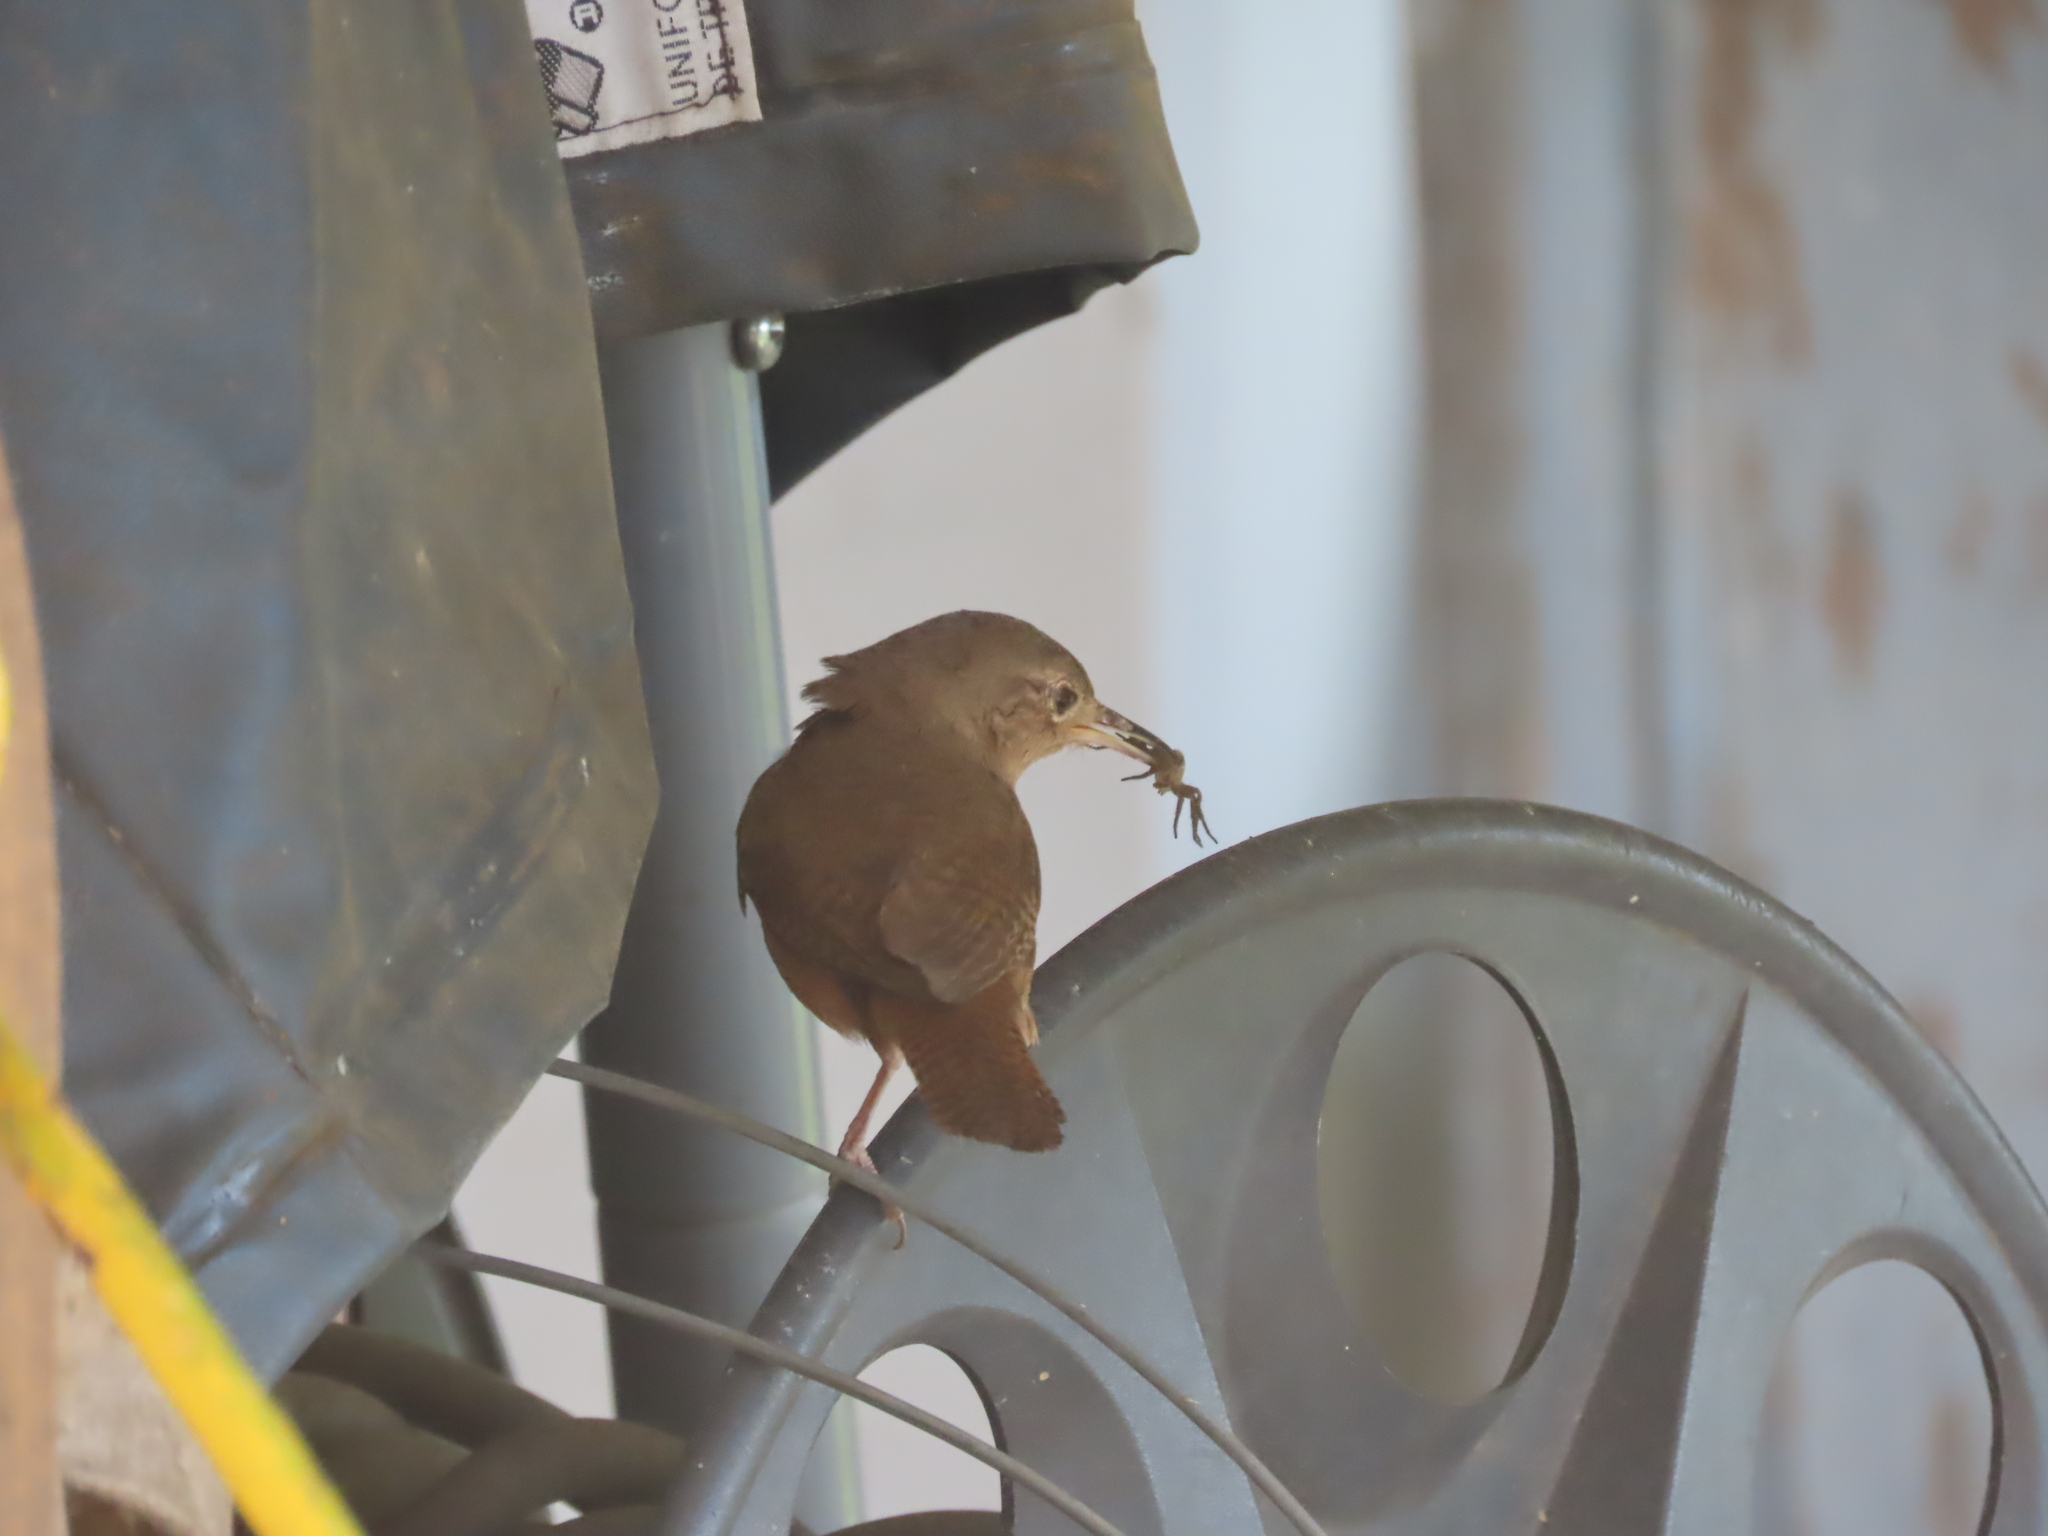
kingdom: Animalia
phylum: Chordata
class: Aves
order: Passeriformes
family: Troglodytidae
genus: Troglodytes
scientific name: Troglodytes aedon
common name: House wren
